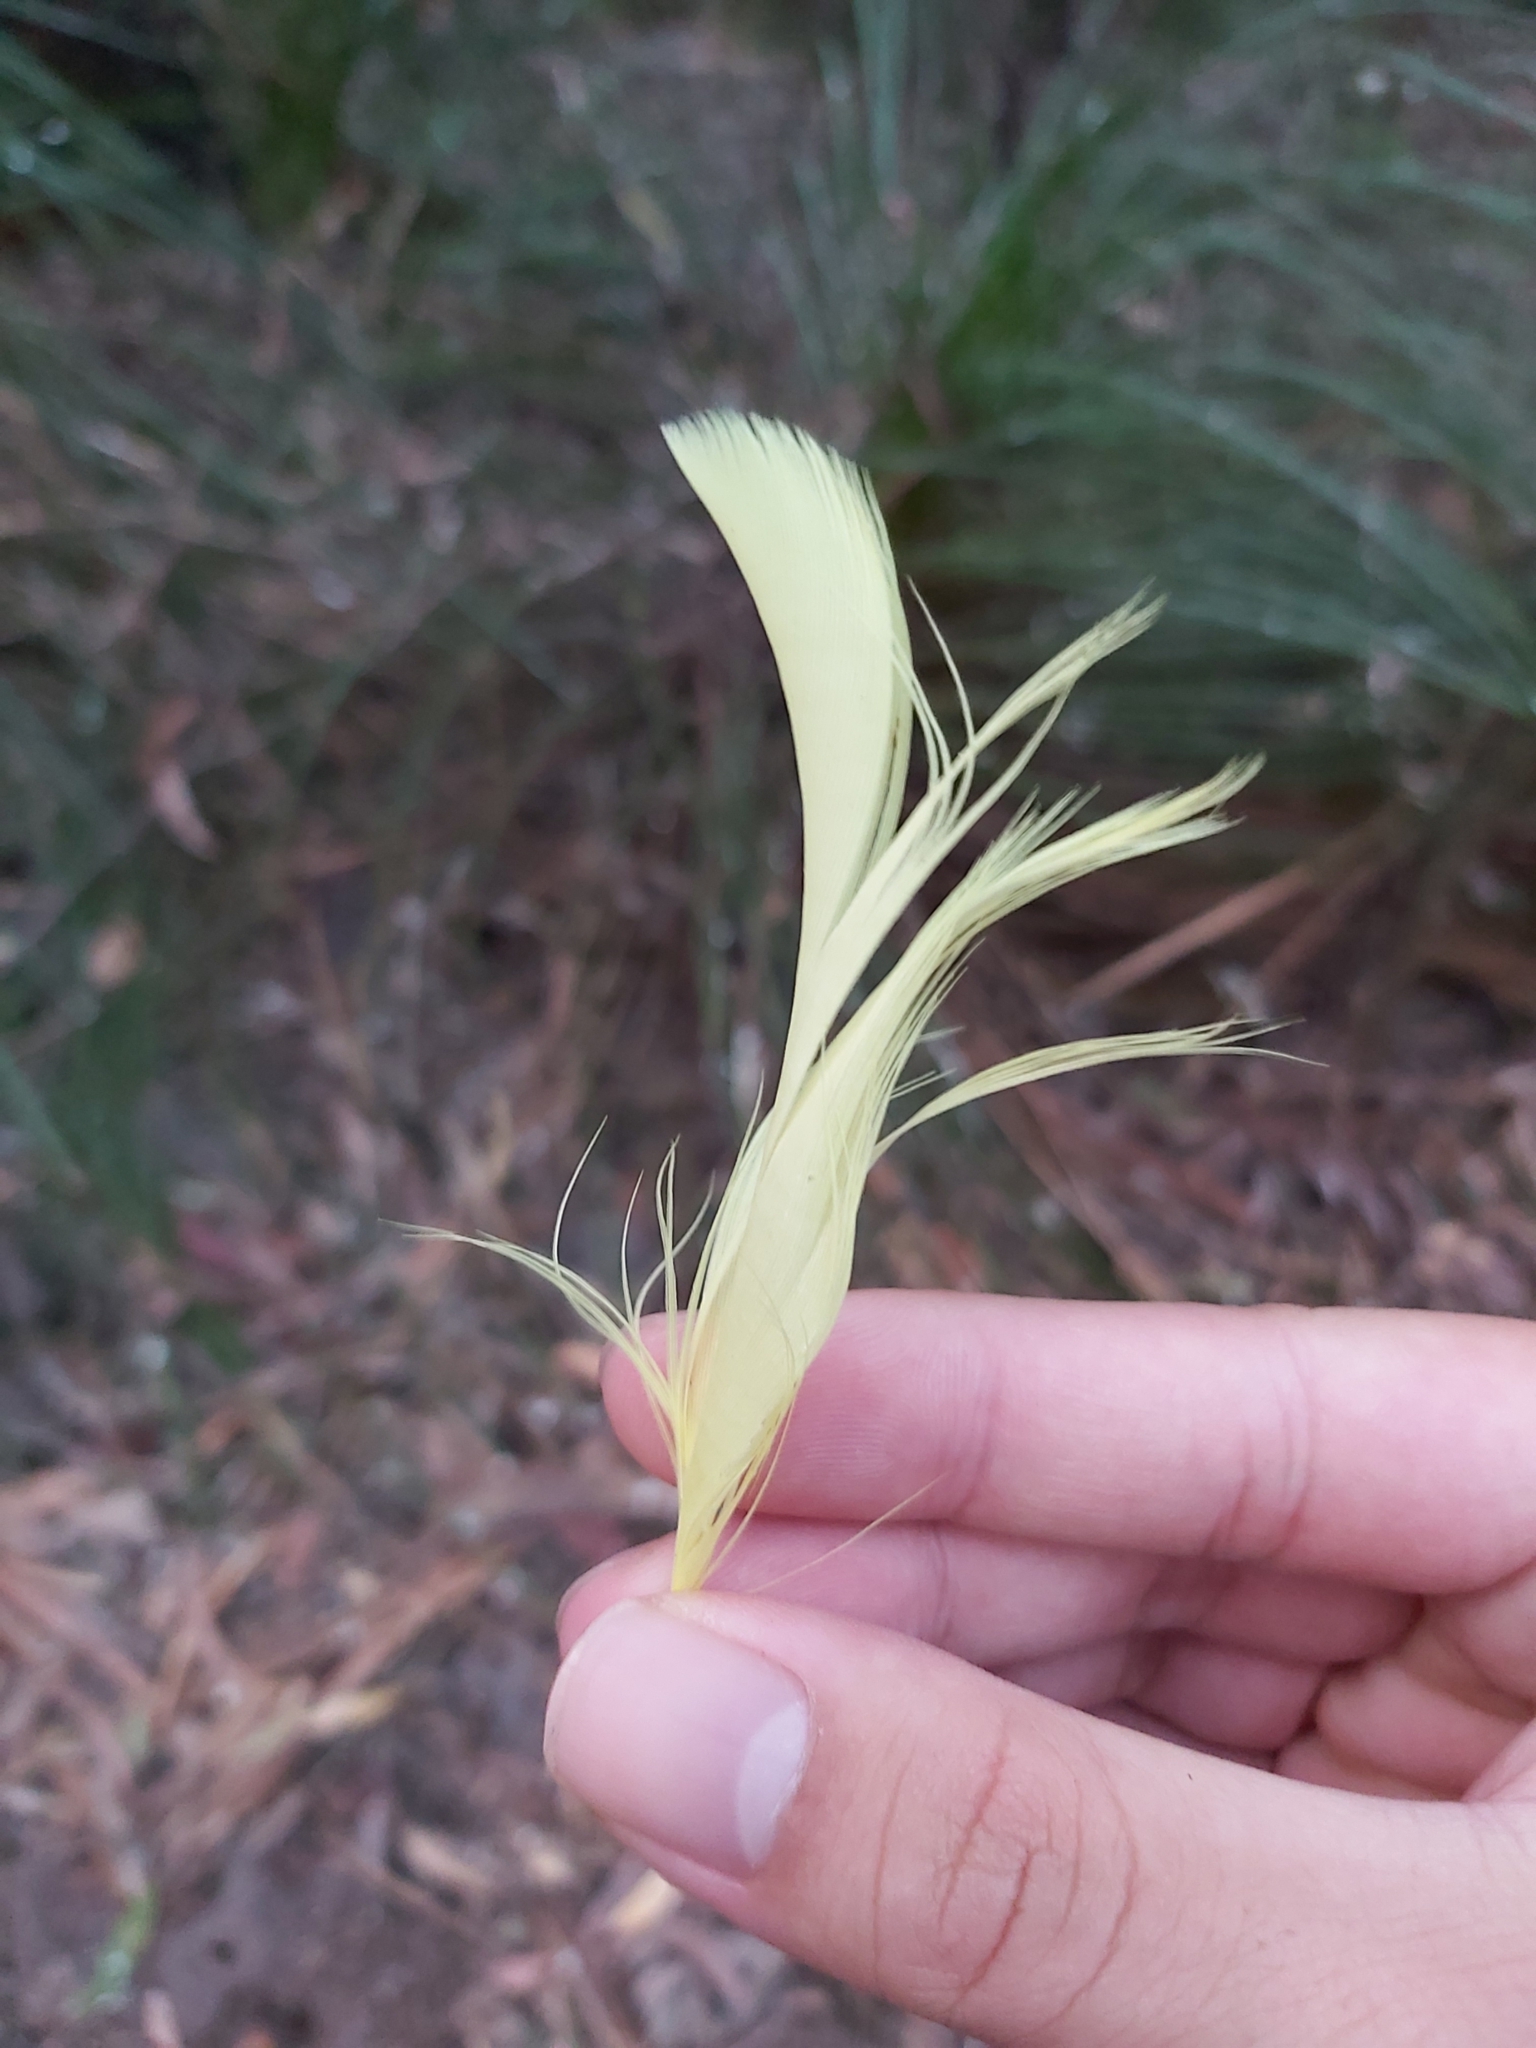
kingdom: Animalia
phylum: Chordata
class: Aves
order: Psittaciformes
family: Psittacidae
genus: Cacatua
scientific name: Cacatua galerita
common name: Sulphur-crested cockatoo
